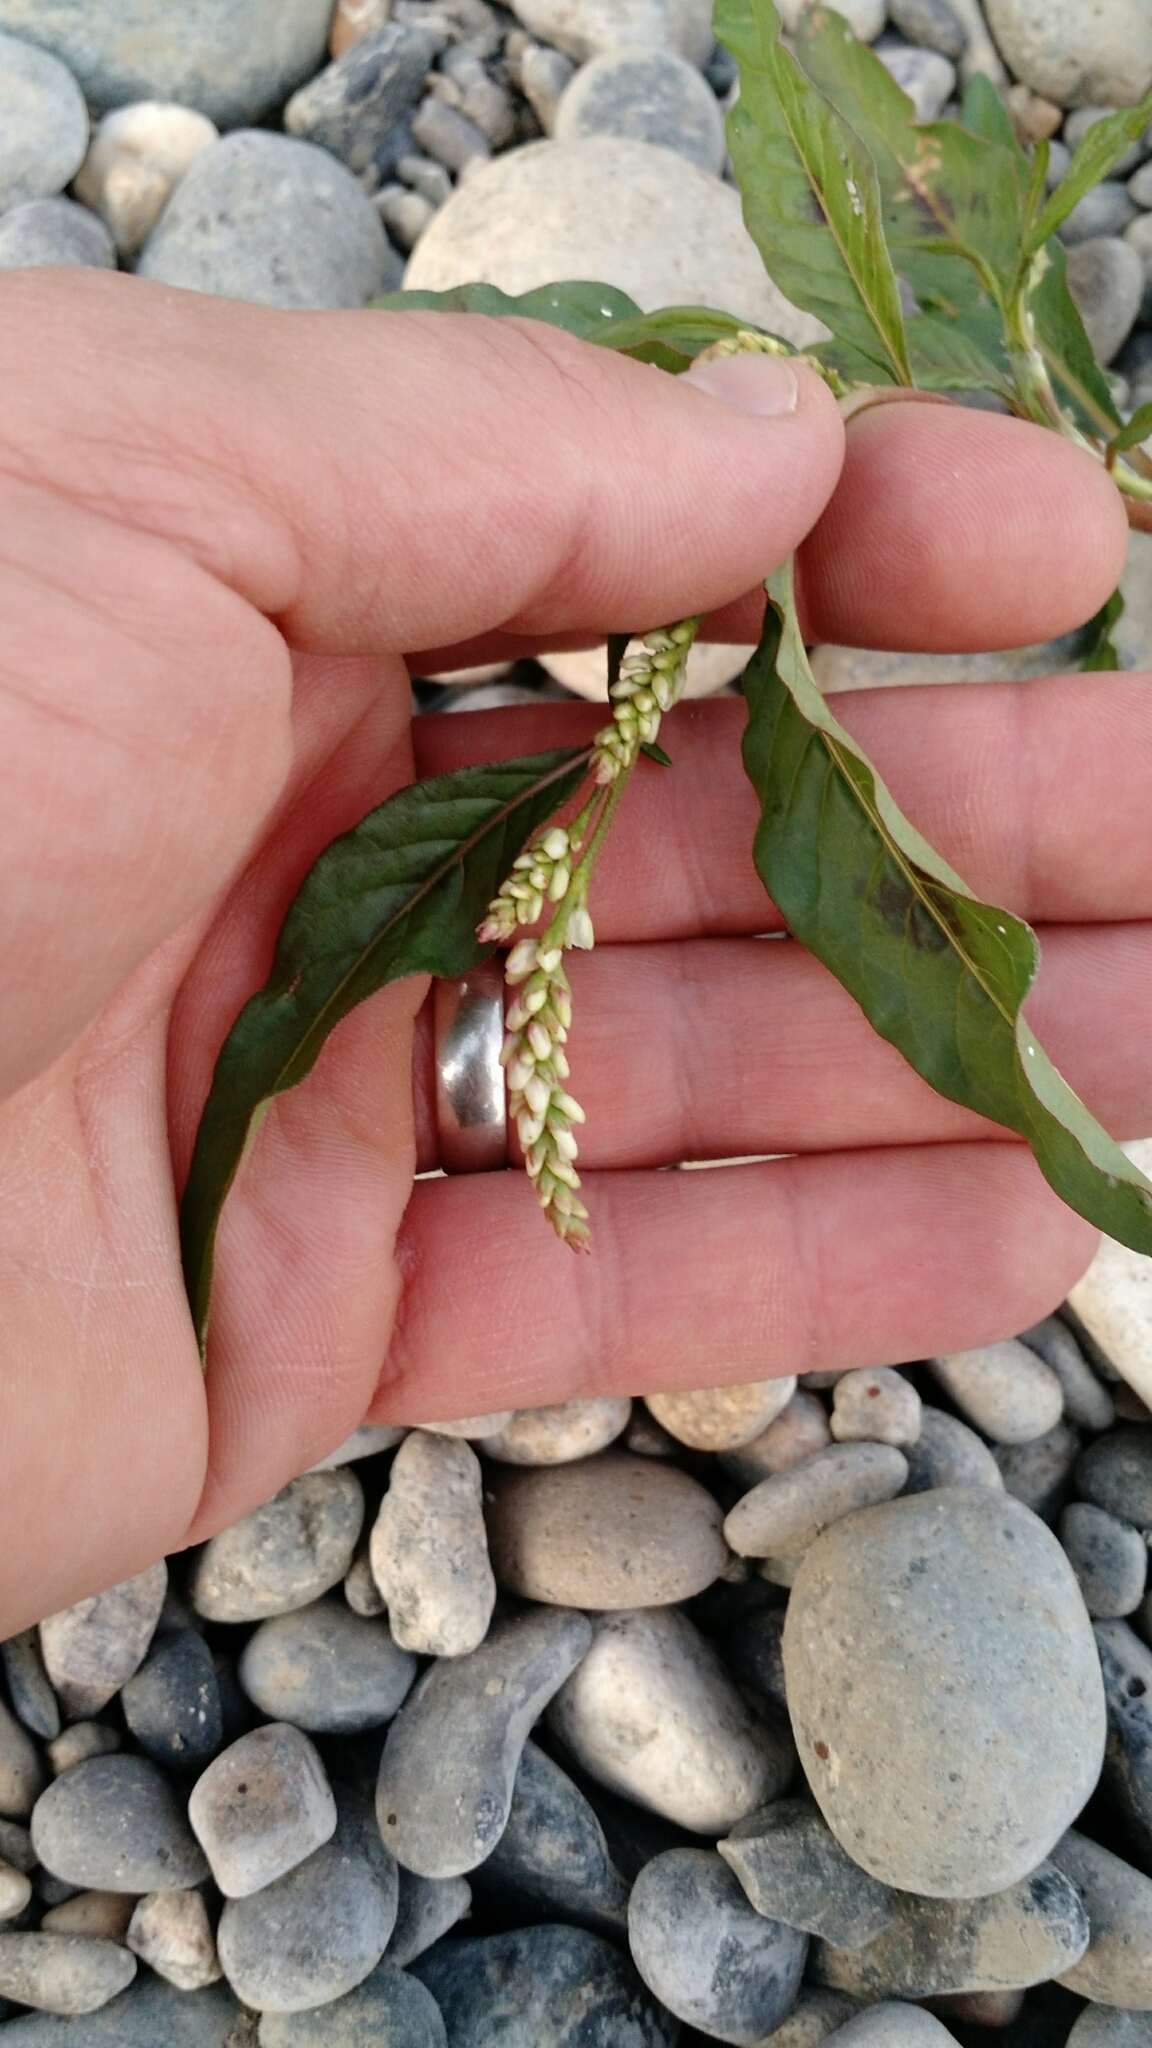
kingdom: Plantae
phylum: Tracheophyta
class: Magnoliopsida
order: Caryophyllales
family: Polygonaceae
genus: Persicaria
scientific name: Persicaria maculosa
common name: Redshank
